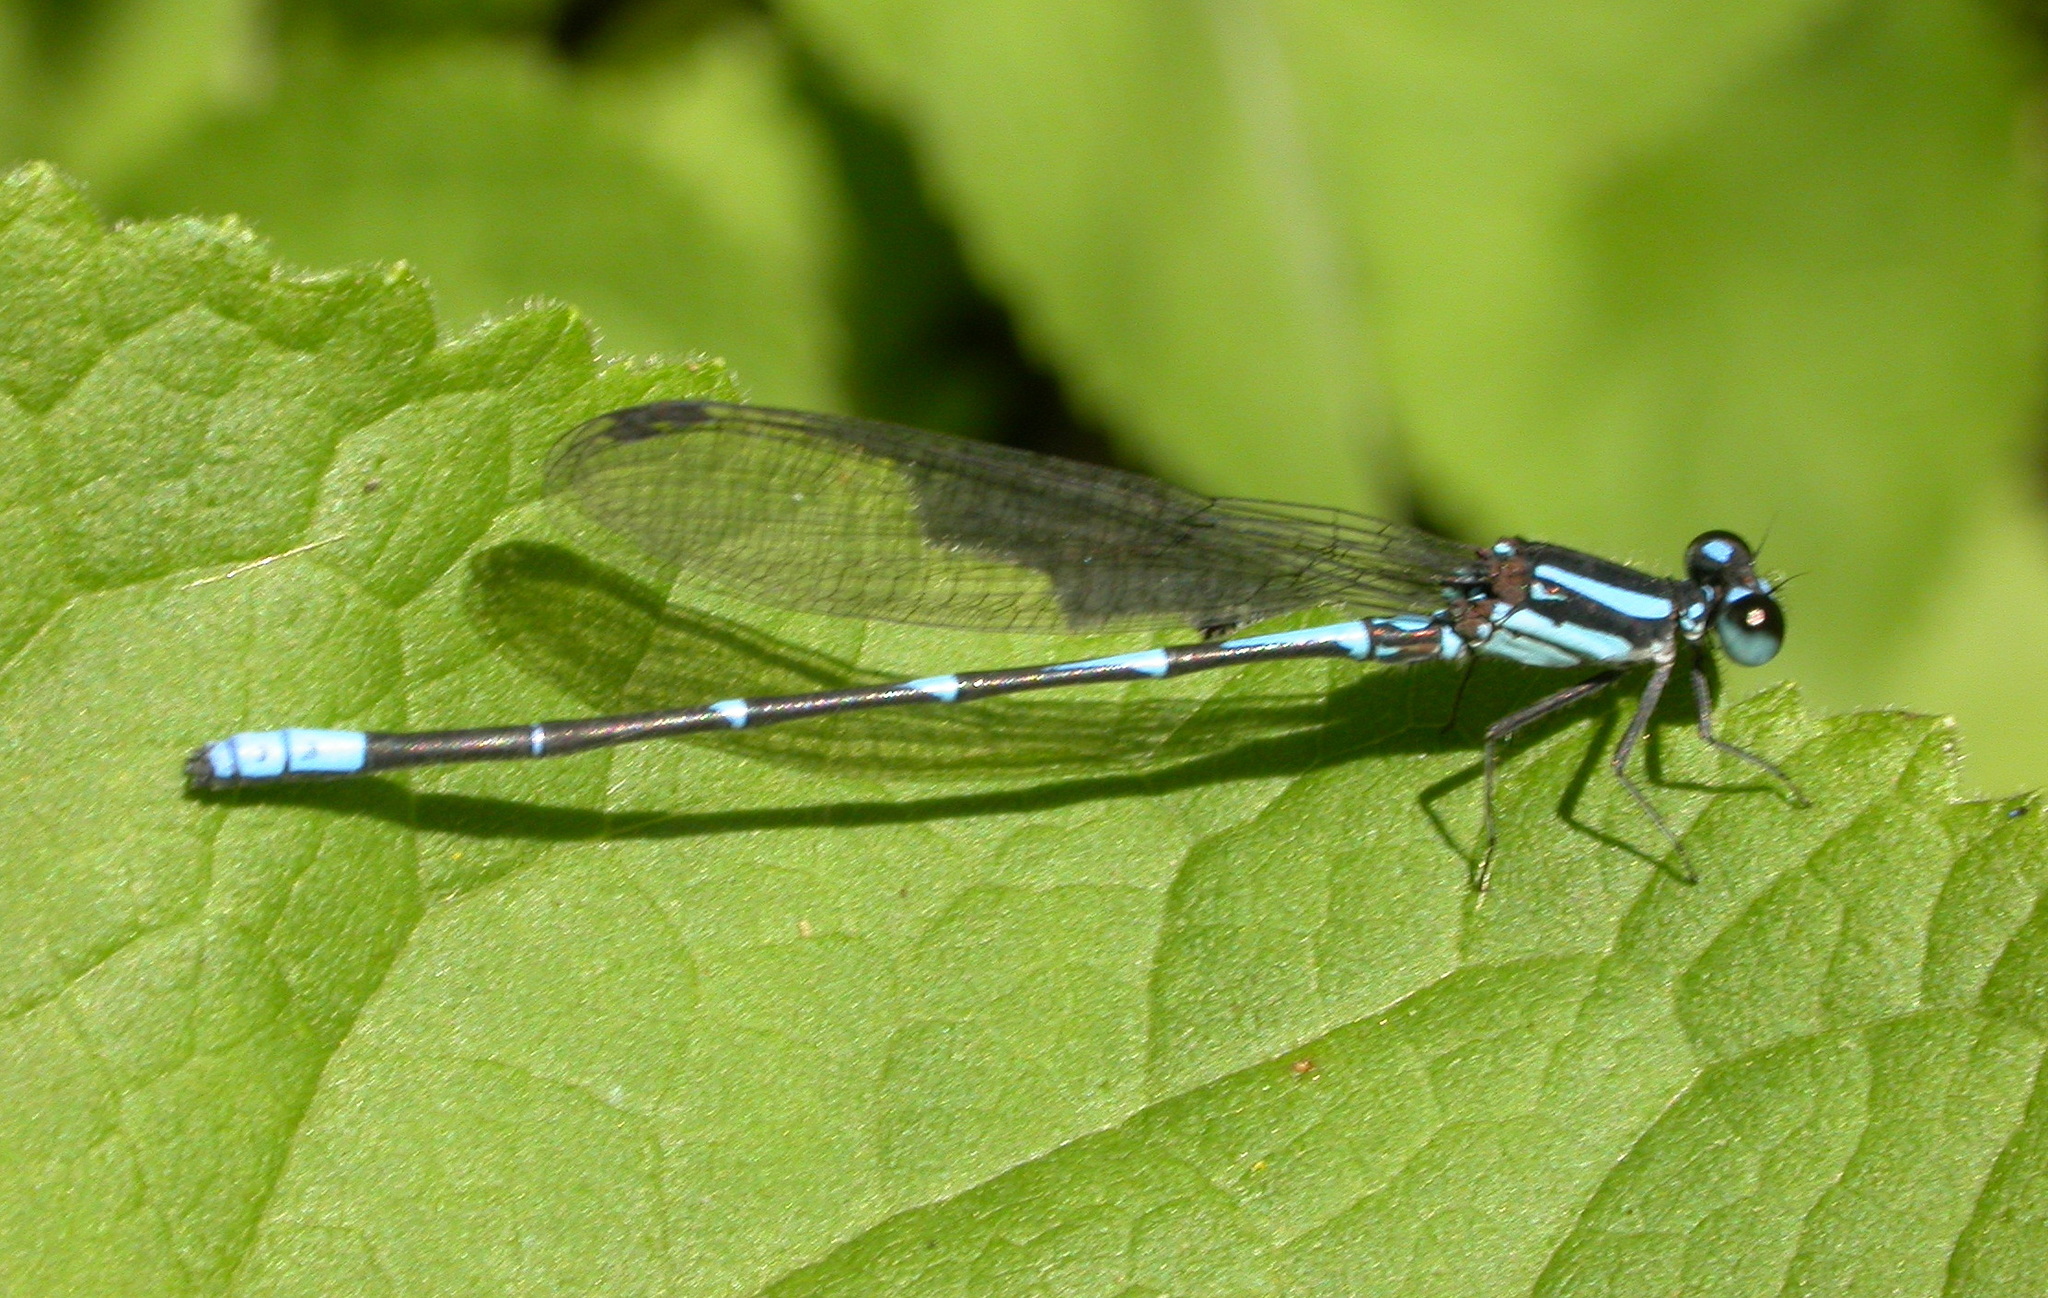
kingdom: Animalia
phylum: Arthropoda
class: Insecta
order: Odonata
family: Coenagrionidae
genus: Argia
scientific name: Argia oculata
